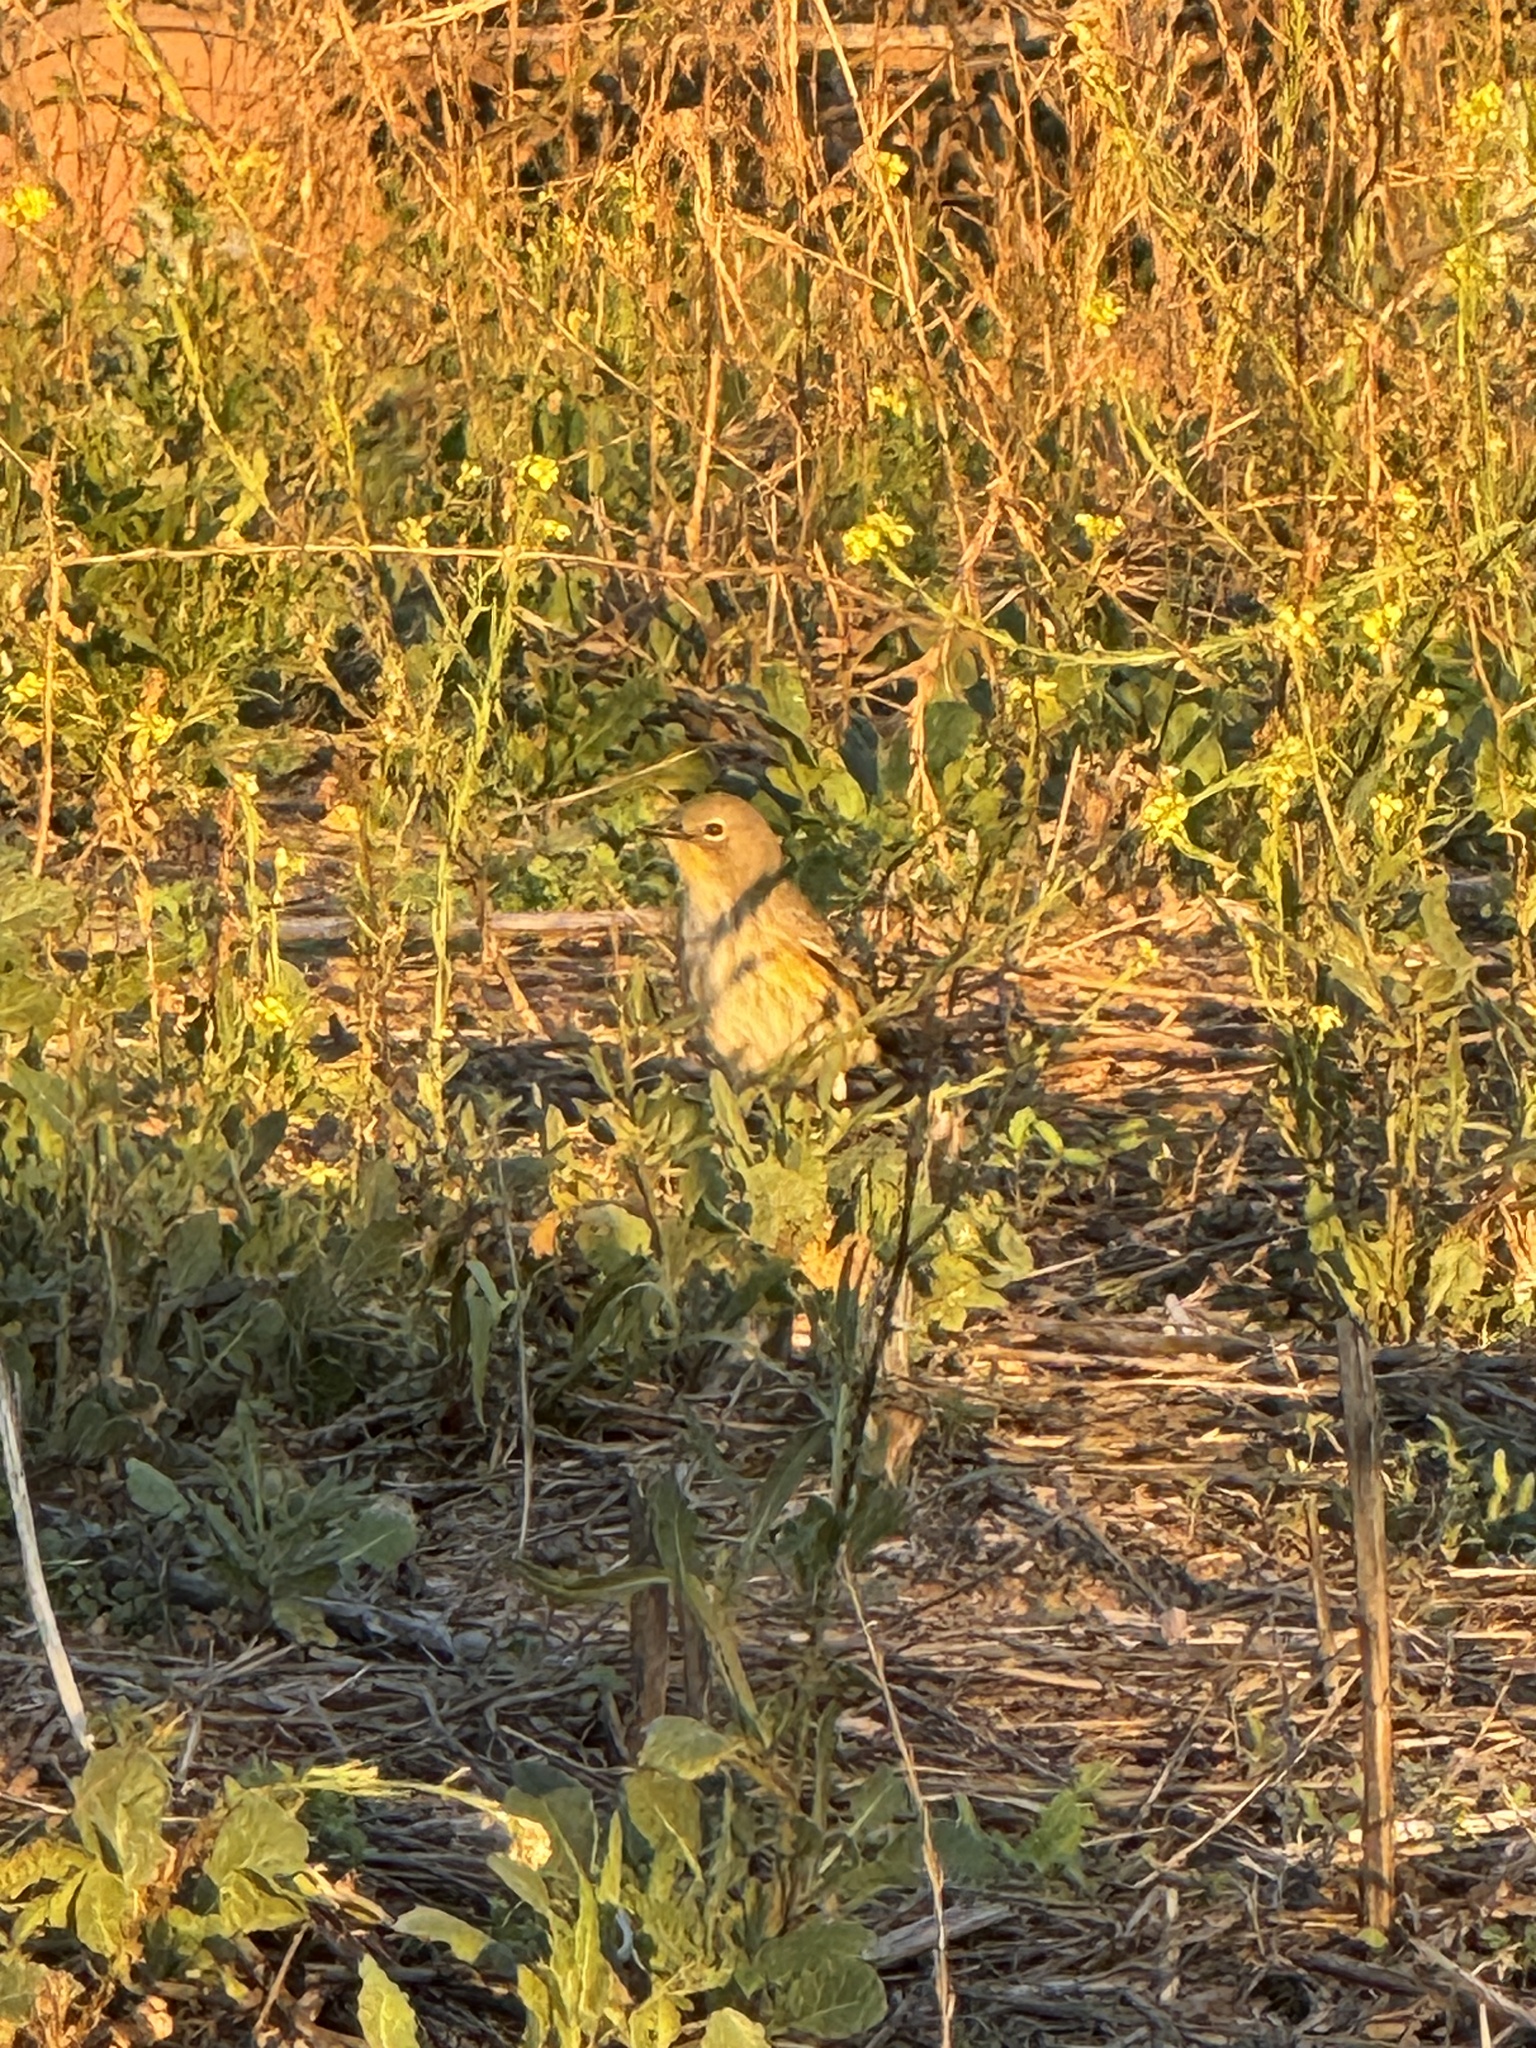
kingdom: Animalia
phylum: Chordata
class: Aves
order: Passeriformes
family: Parulidae
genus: Setophaga
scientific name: Setophaga coronata
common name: Myrtle warbler
